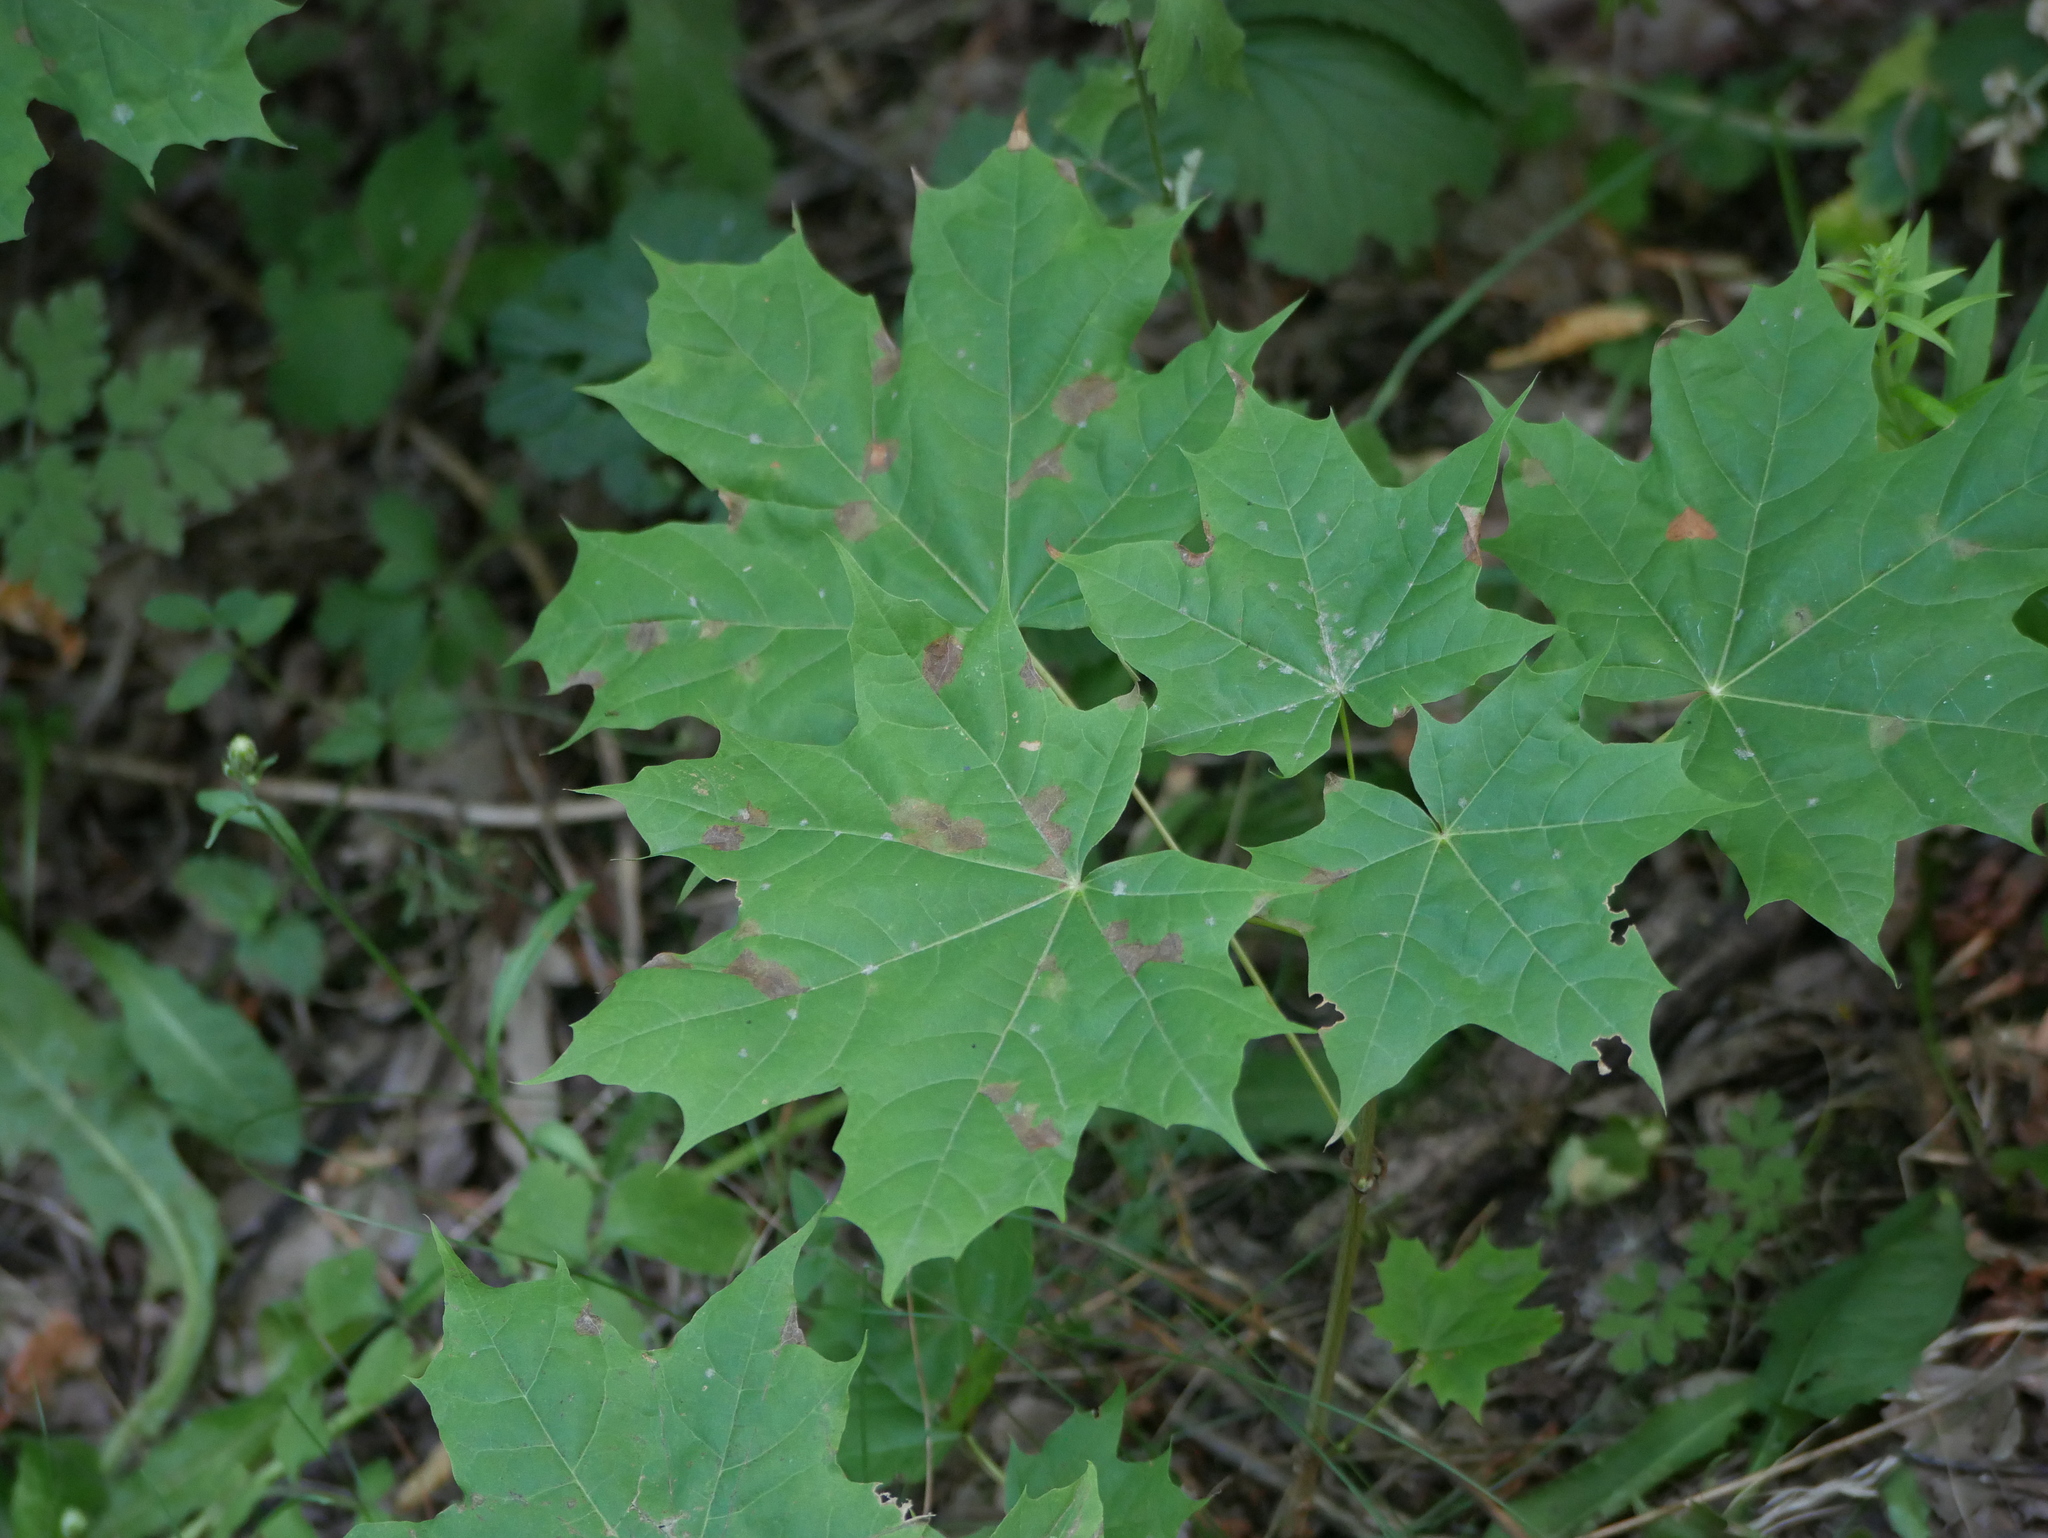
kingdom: Plantae
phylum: Tracheophyta
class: Magnoliopsida
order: Sapindales
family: Sapindaceae
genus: Acer
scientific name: Acer platanoides
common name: Norway maple
